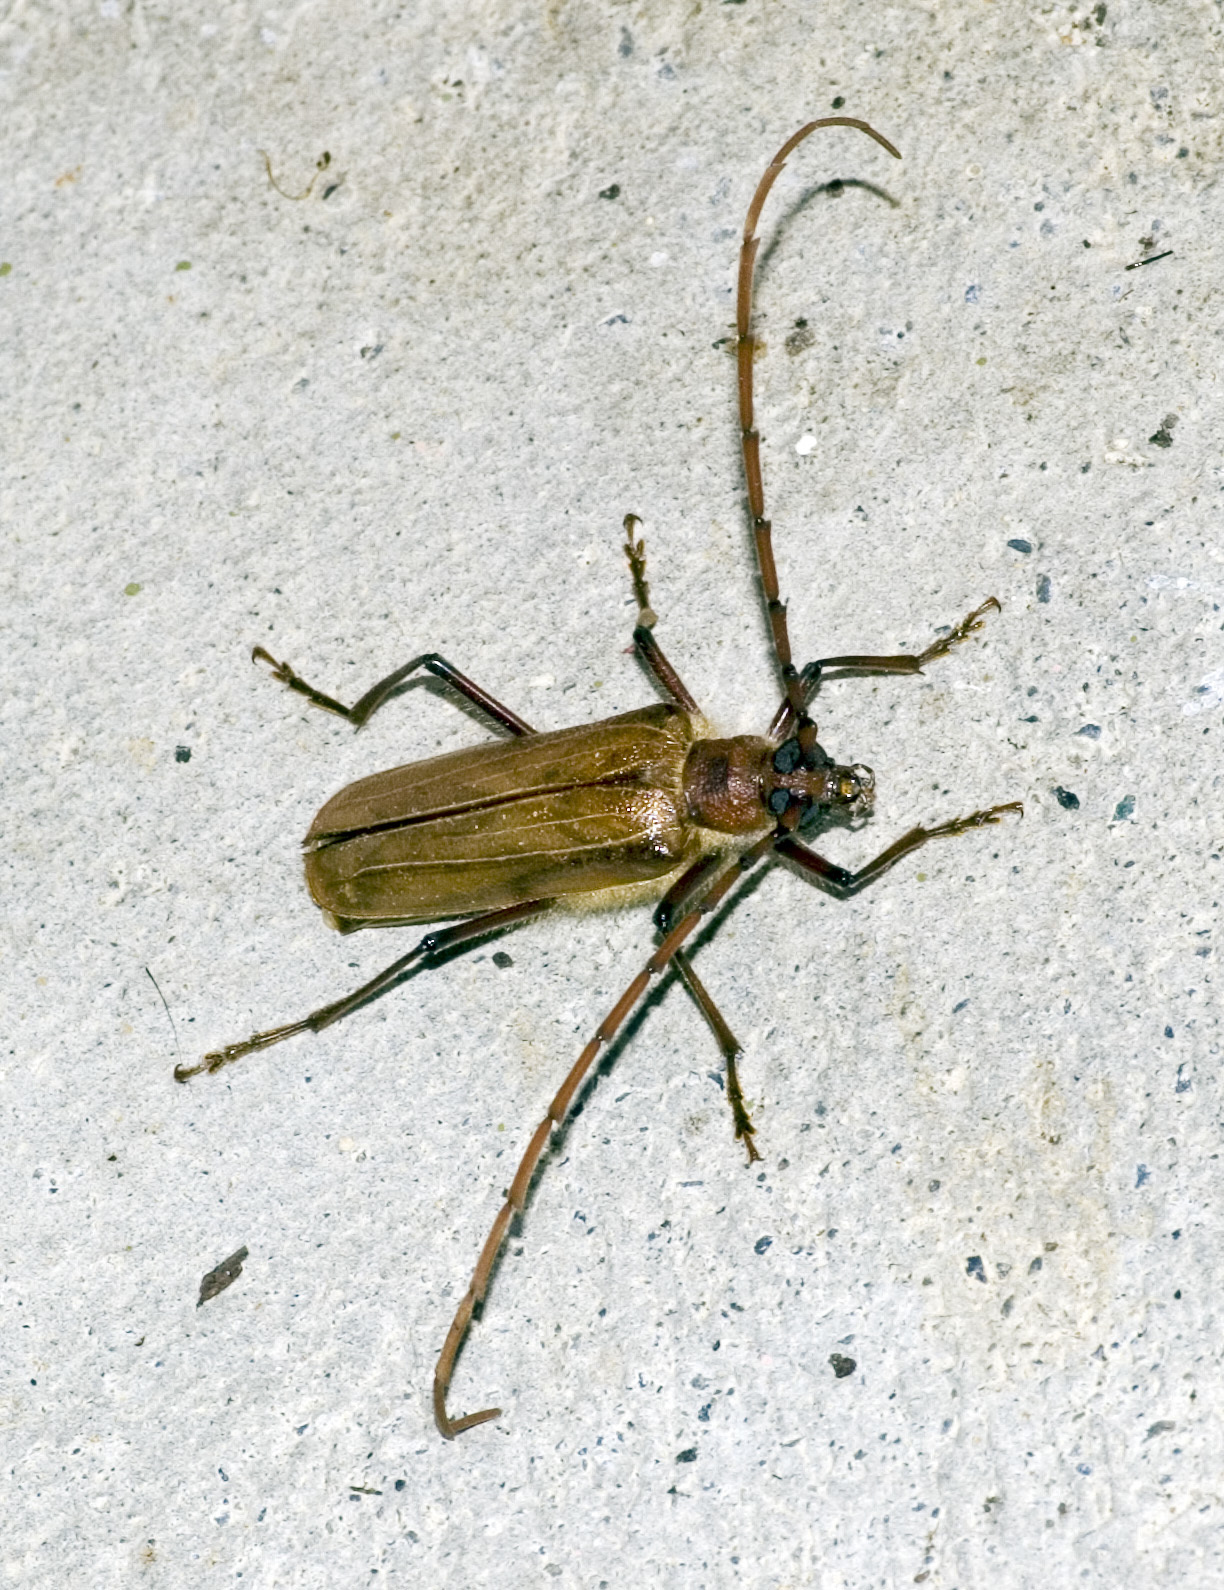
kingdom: Animalia
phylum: Arthropoda
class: Insecta
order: Coleoptera
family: Cerambycidae
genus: Ochrocydus
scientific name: Ochrocydus huttoni
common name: Kanuka longhorn
